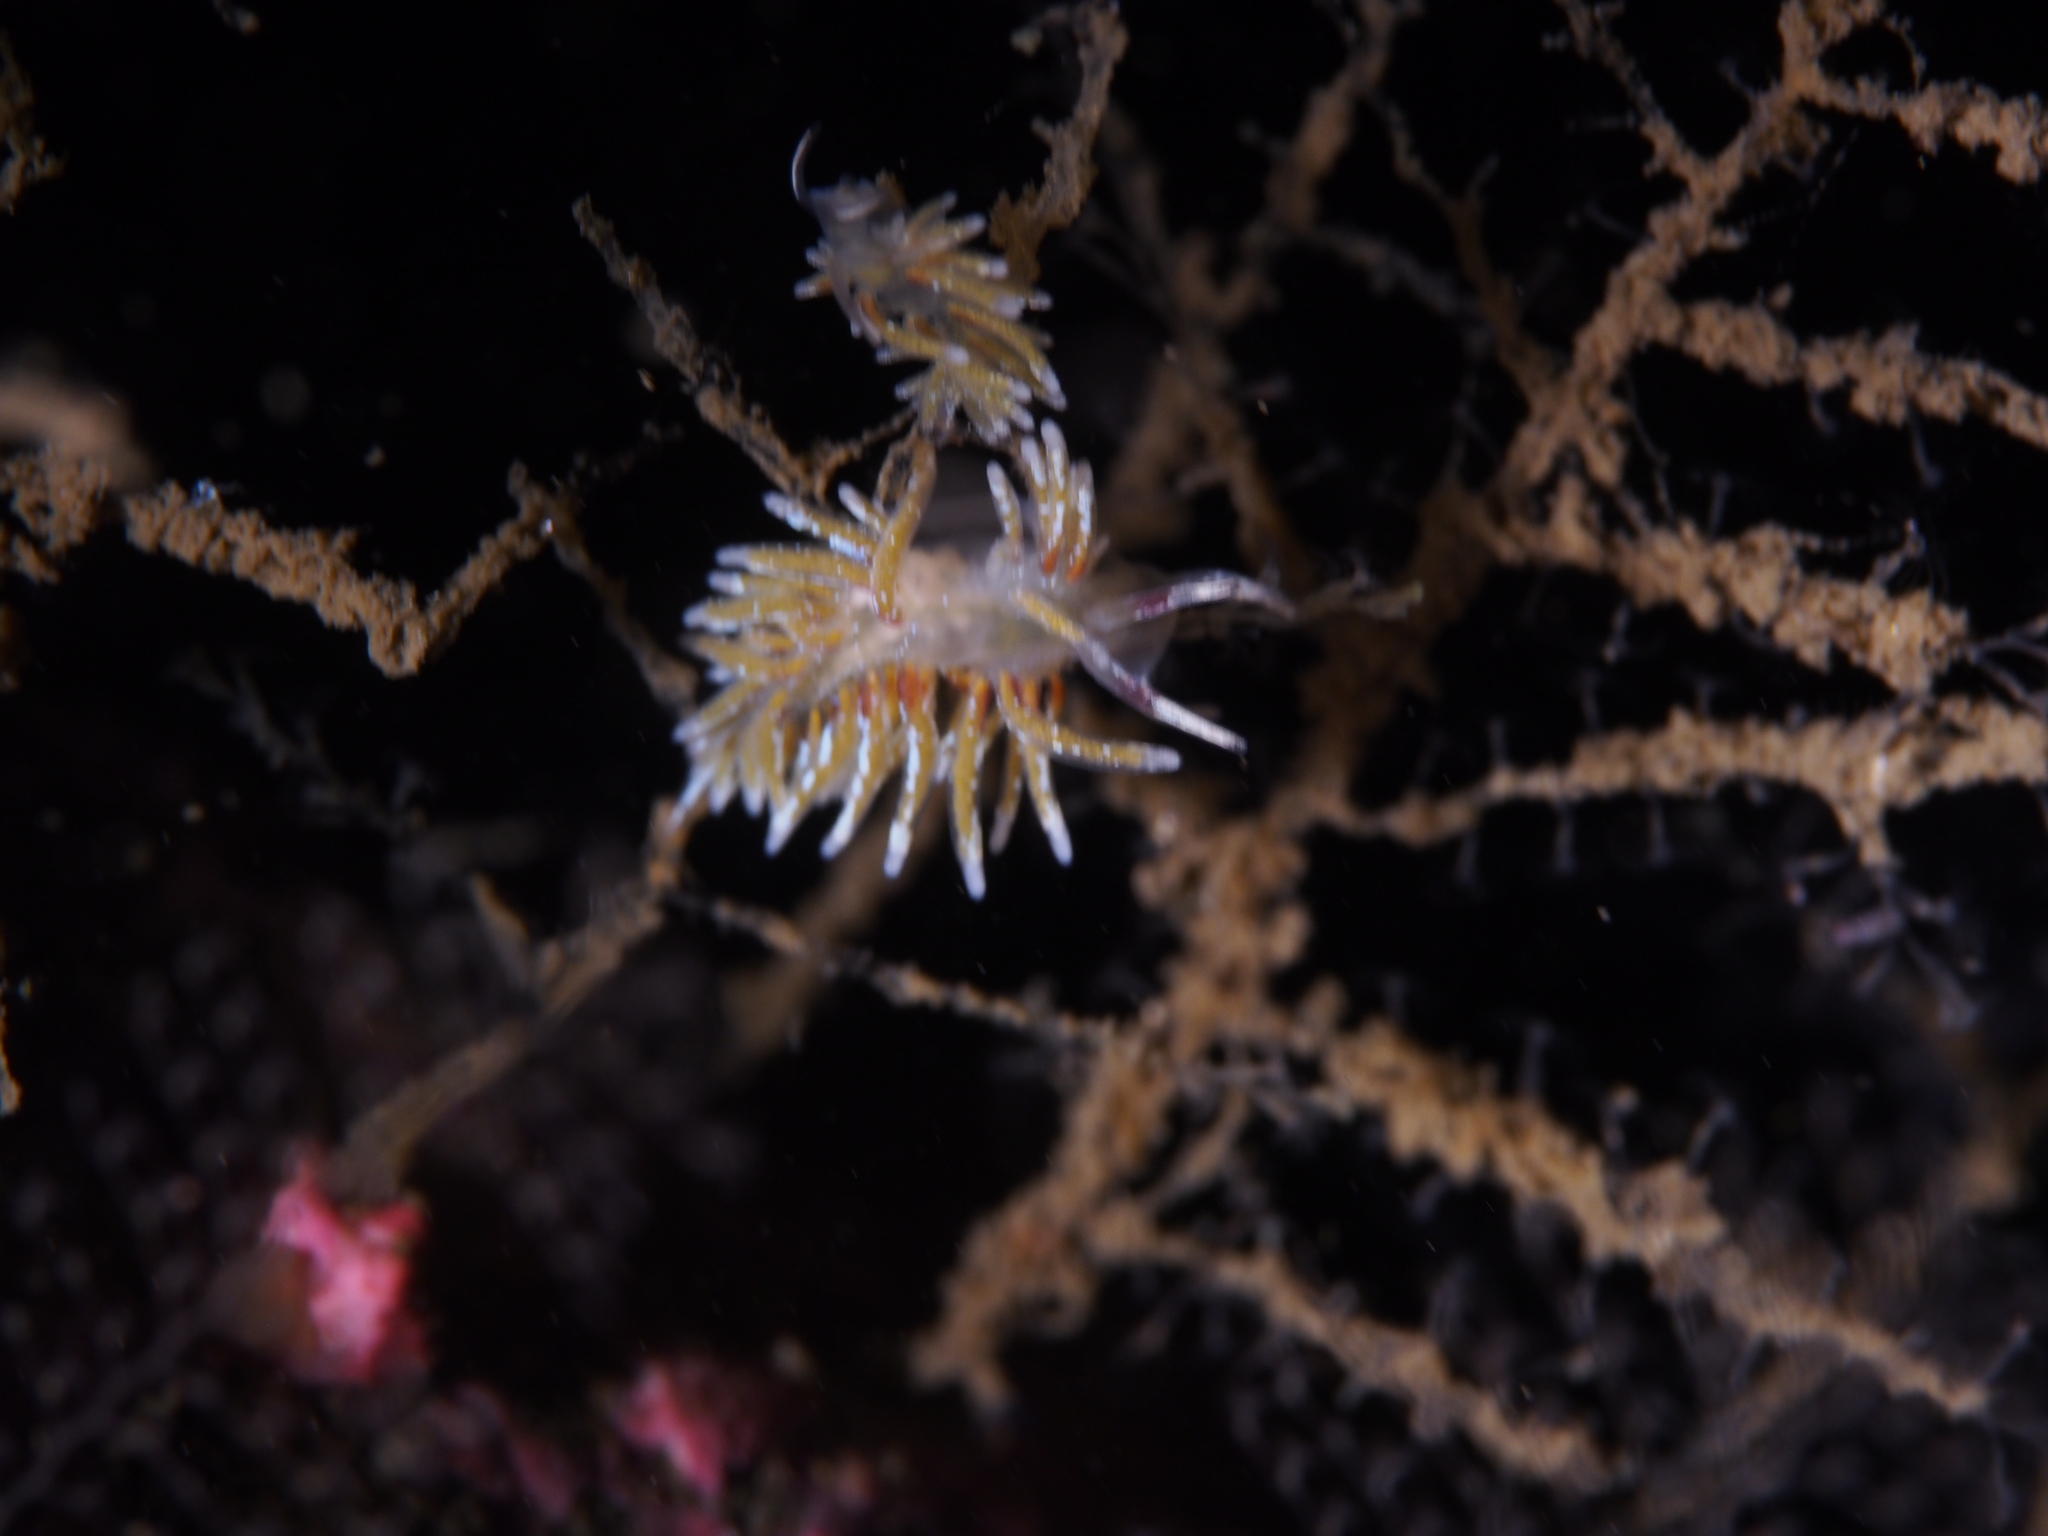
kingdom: Animalia
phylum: Mollusca
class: Gastropoda
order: Nudibranchia
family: Trinchesiidae
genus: Rubramoena
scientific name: Rubramoena rubescens
